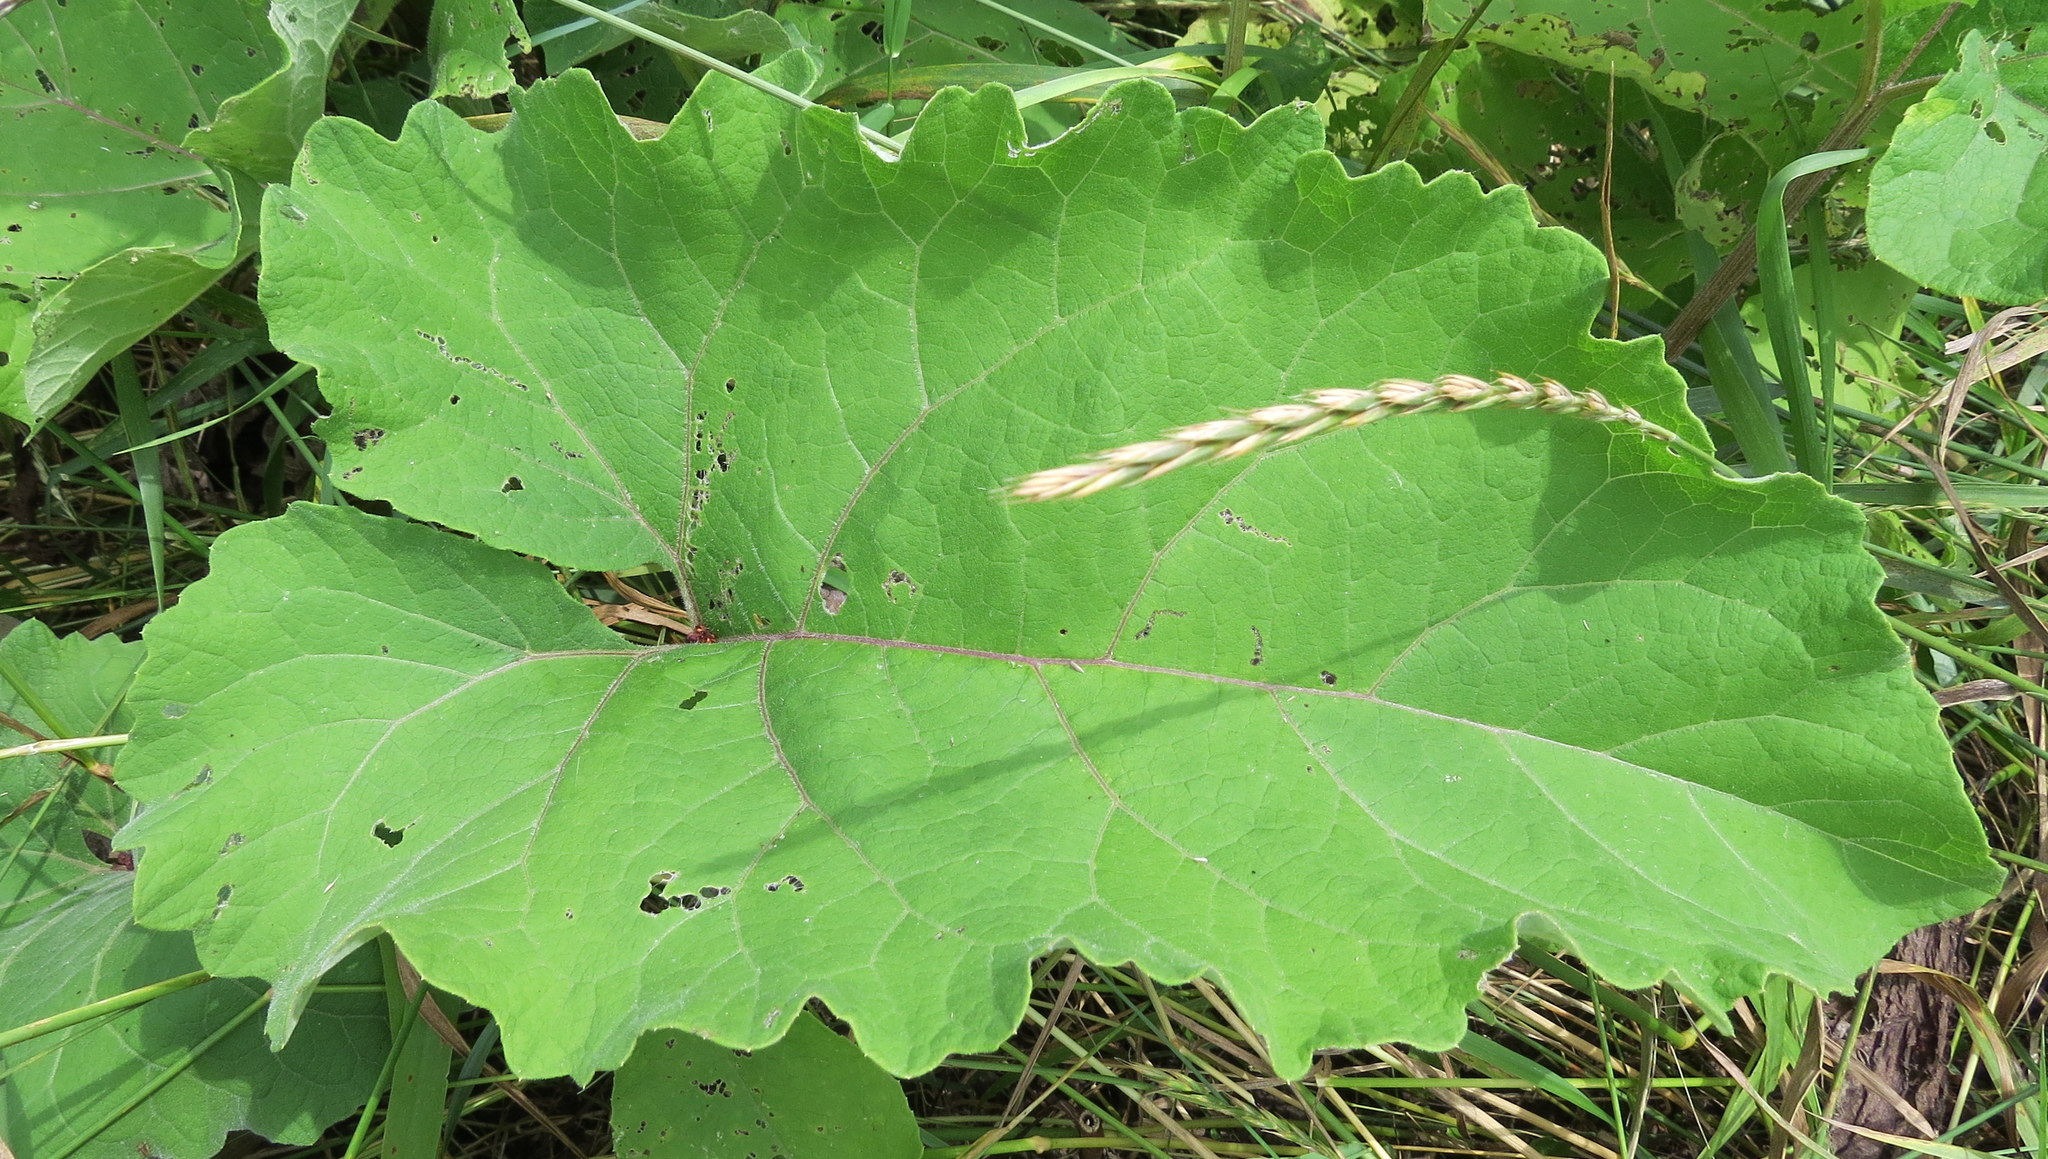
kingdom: Plantae
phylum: Tracheophyta
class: Magnoliopsida
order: Asterales
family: Asteraceae
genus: Arctium
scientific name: Arctium
